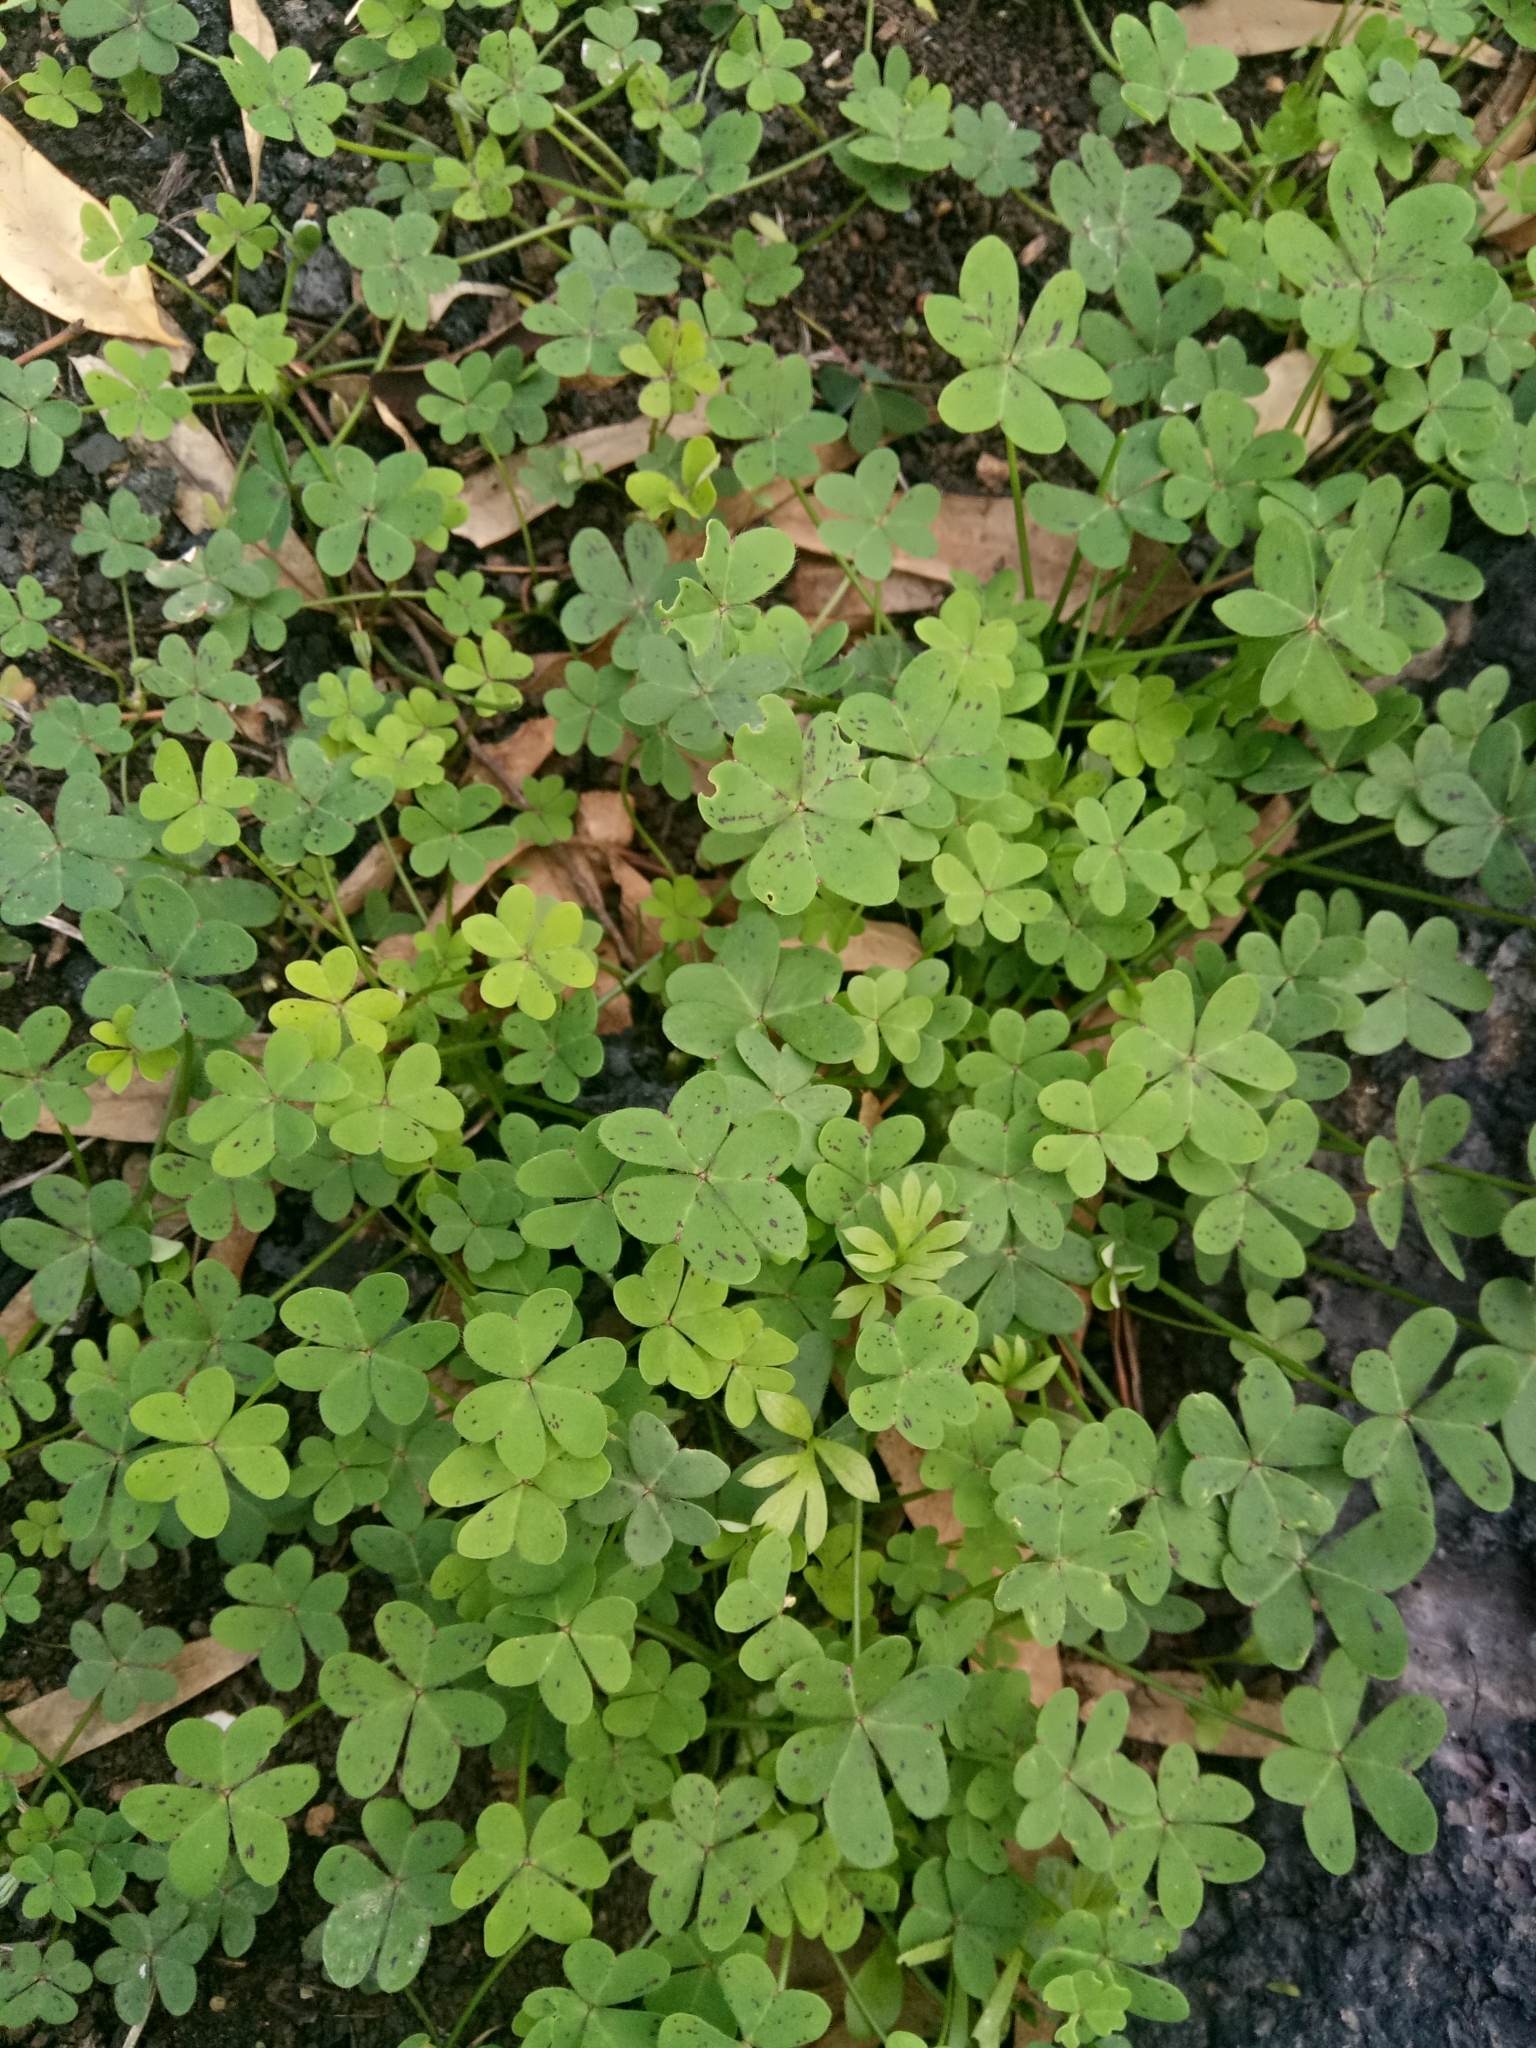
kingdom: Plantae
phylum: Tracheophyta
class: Magnoliopsida
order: Oxalidales
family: Oxalidaceae
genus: Oxalis
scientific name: Oxalis pes-caprae
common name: Bermuda-buttercup
